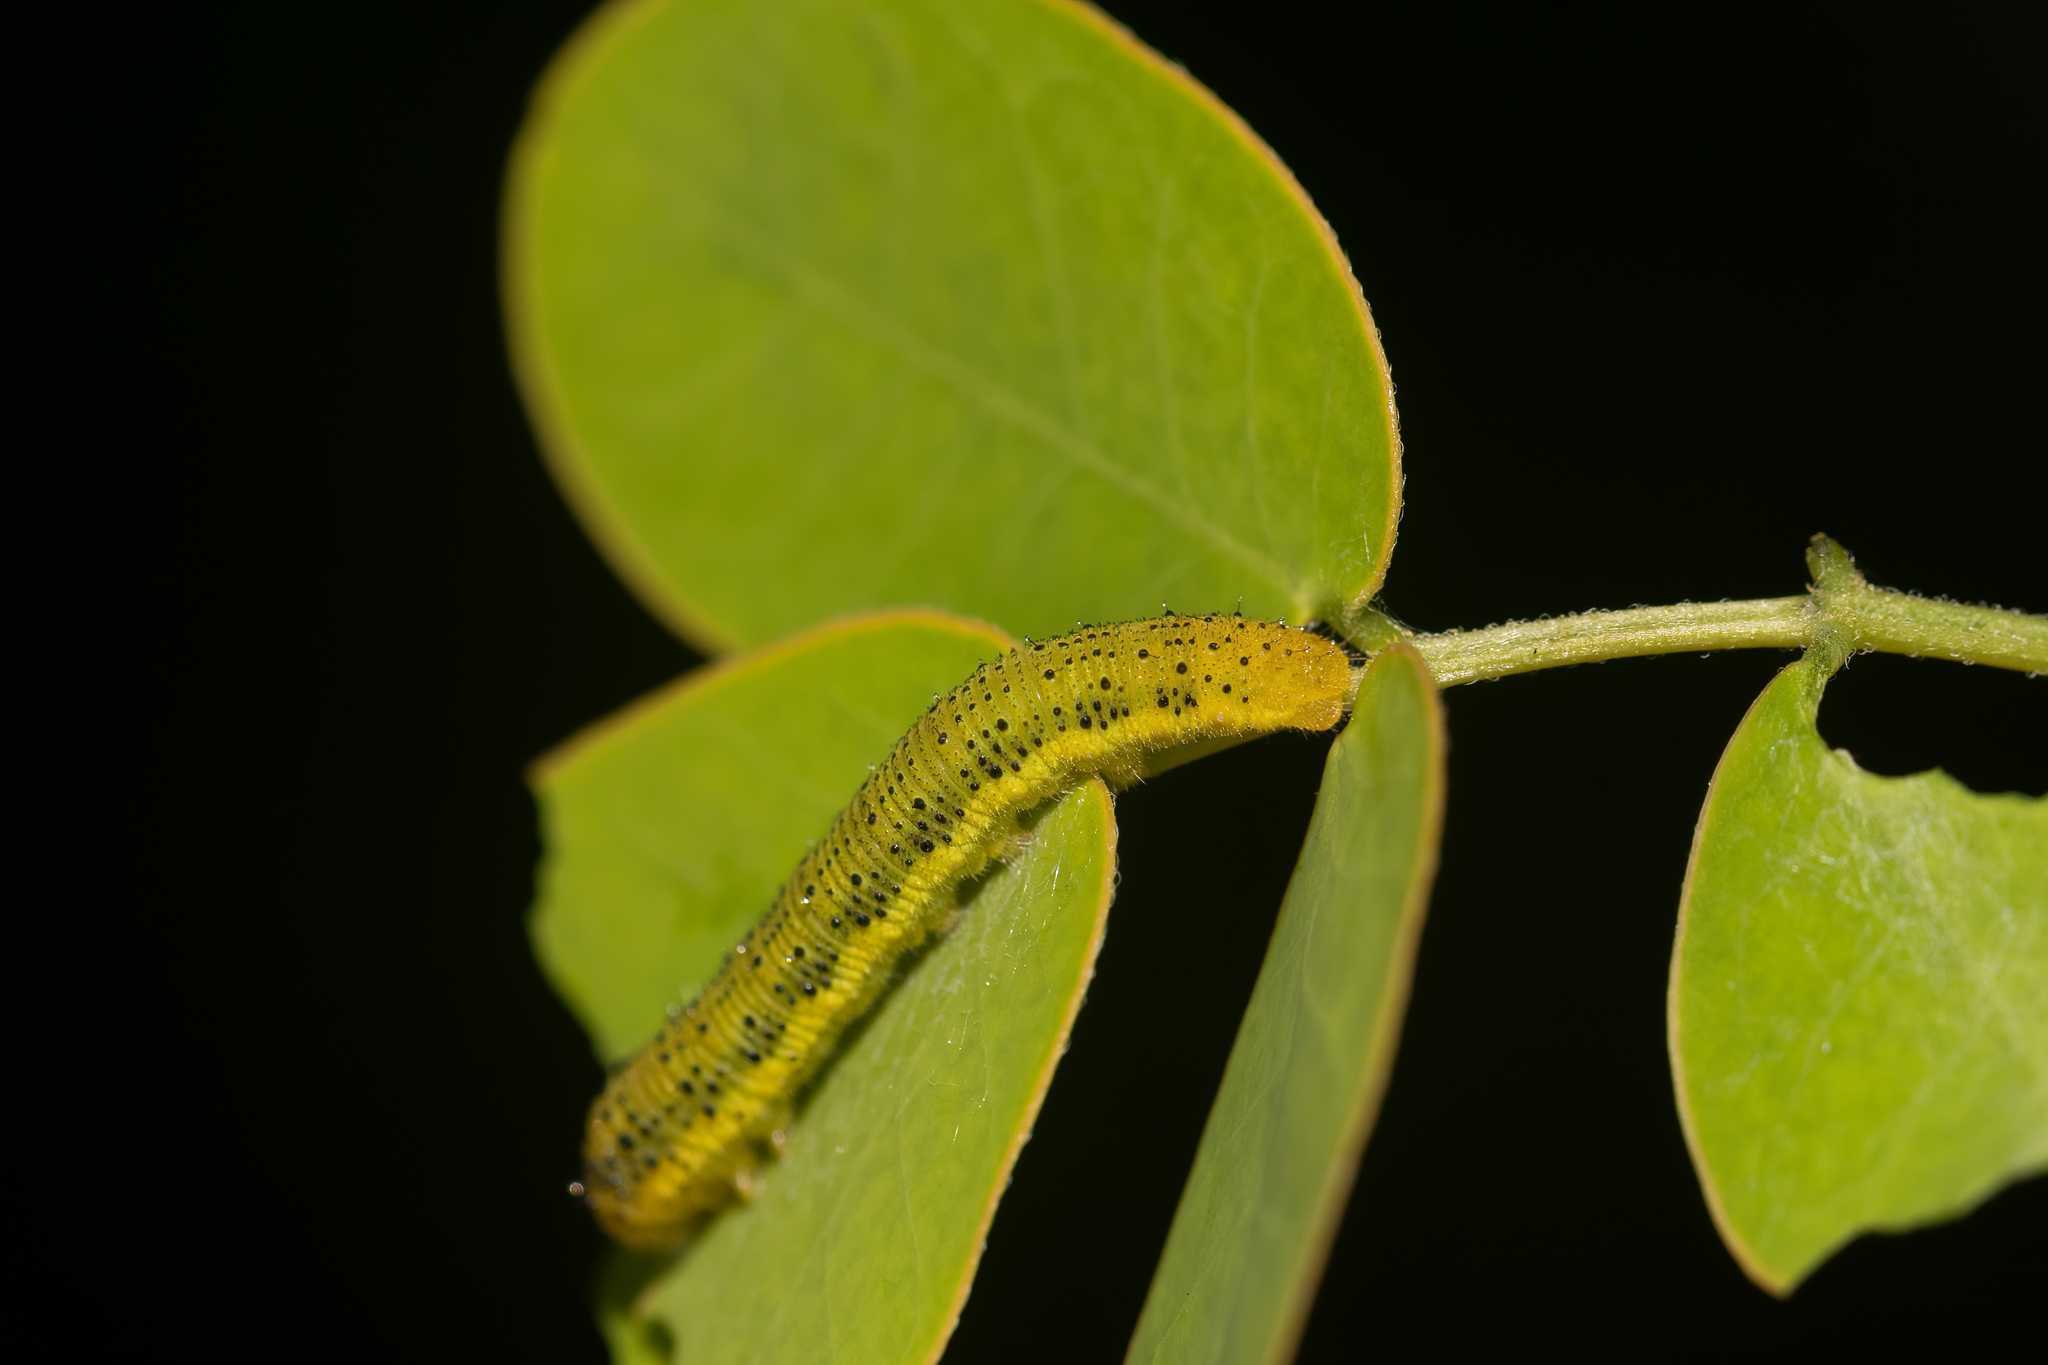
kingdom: Animalia
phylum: Arthropoda
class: Insecta
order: Lepidoptera
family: Pieridae
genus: Phoebis
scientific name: Phoebis philea
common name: Orange-barred giant sulphur
